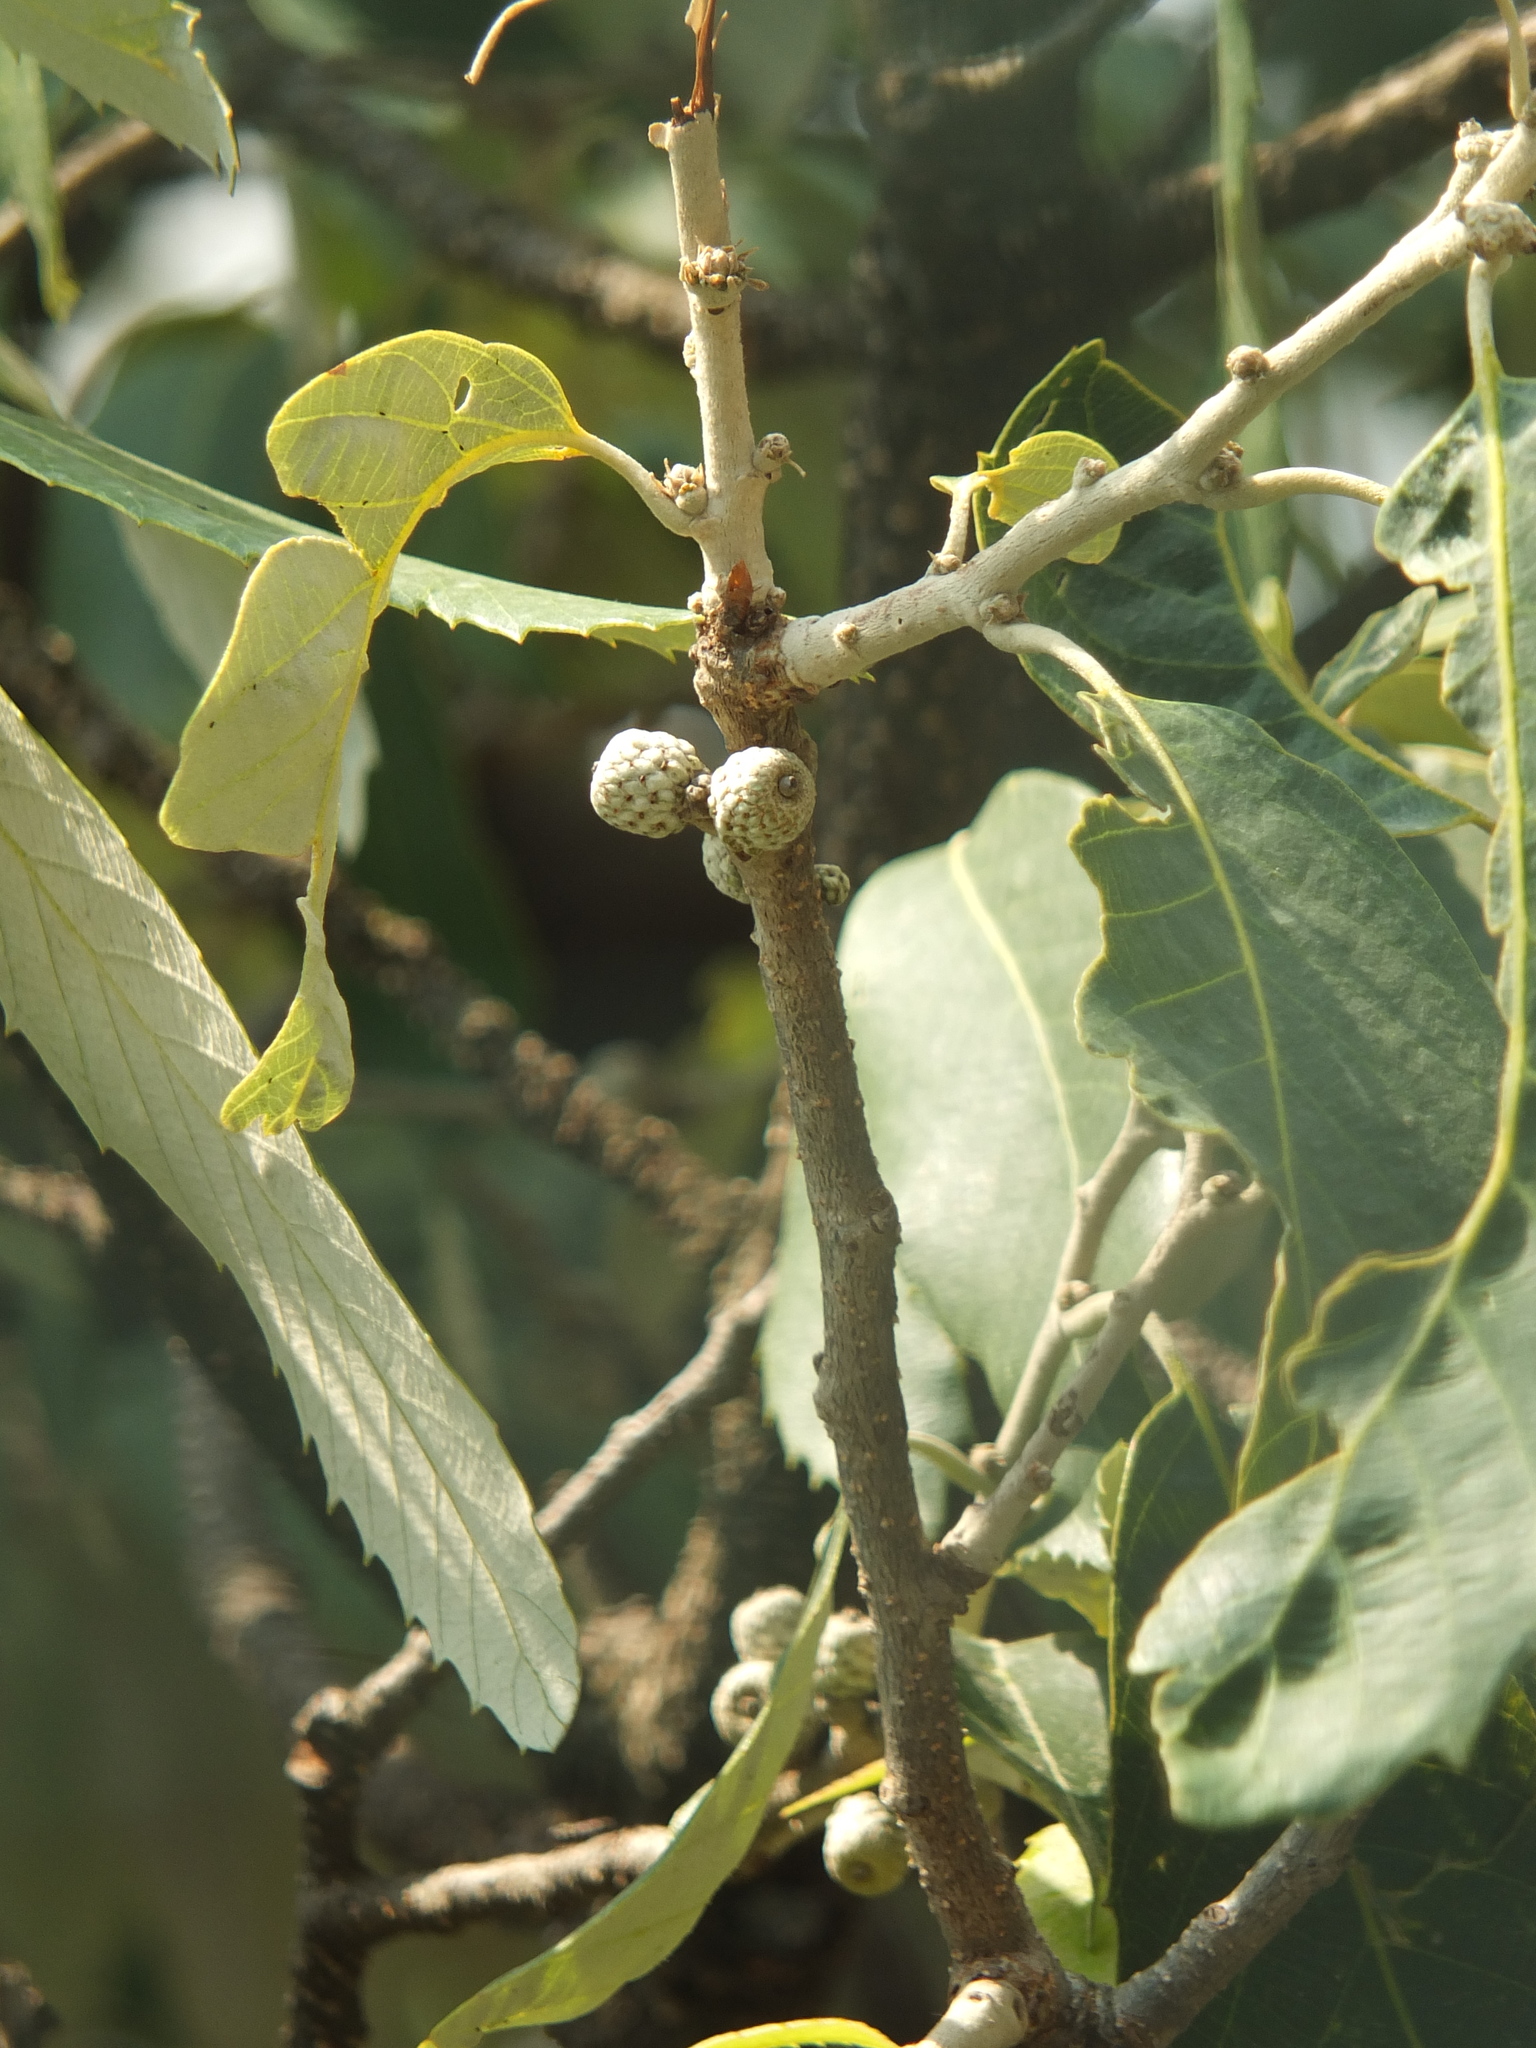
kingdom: Plantae
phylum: Tracheophyta
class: Magnoliopsida
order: Fagales
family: Fagaceae
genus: Quercus
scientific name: Quercus leucotrichophora
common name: Banj oak
